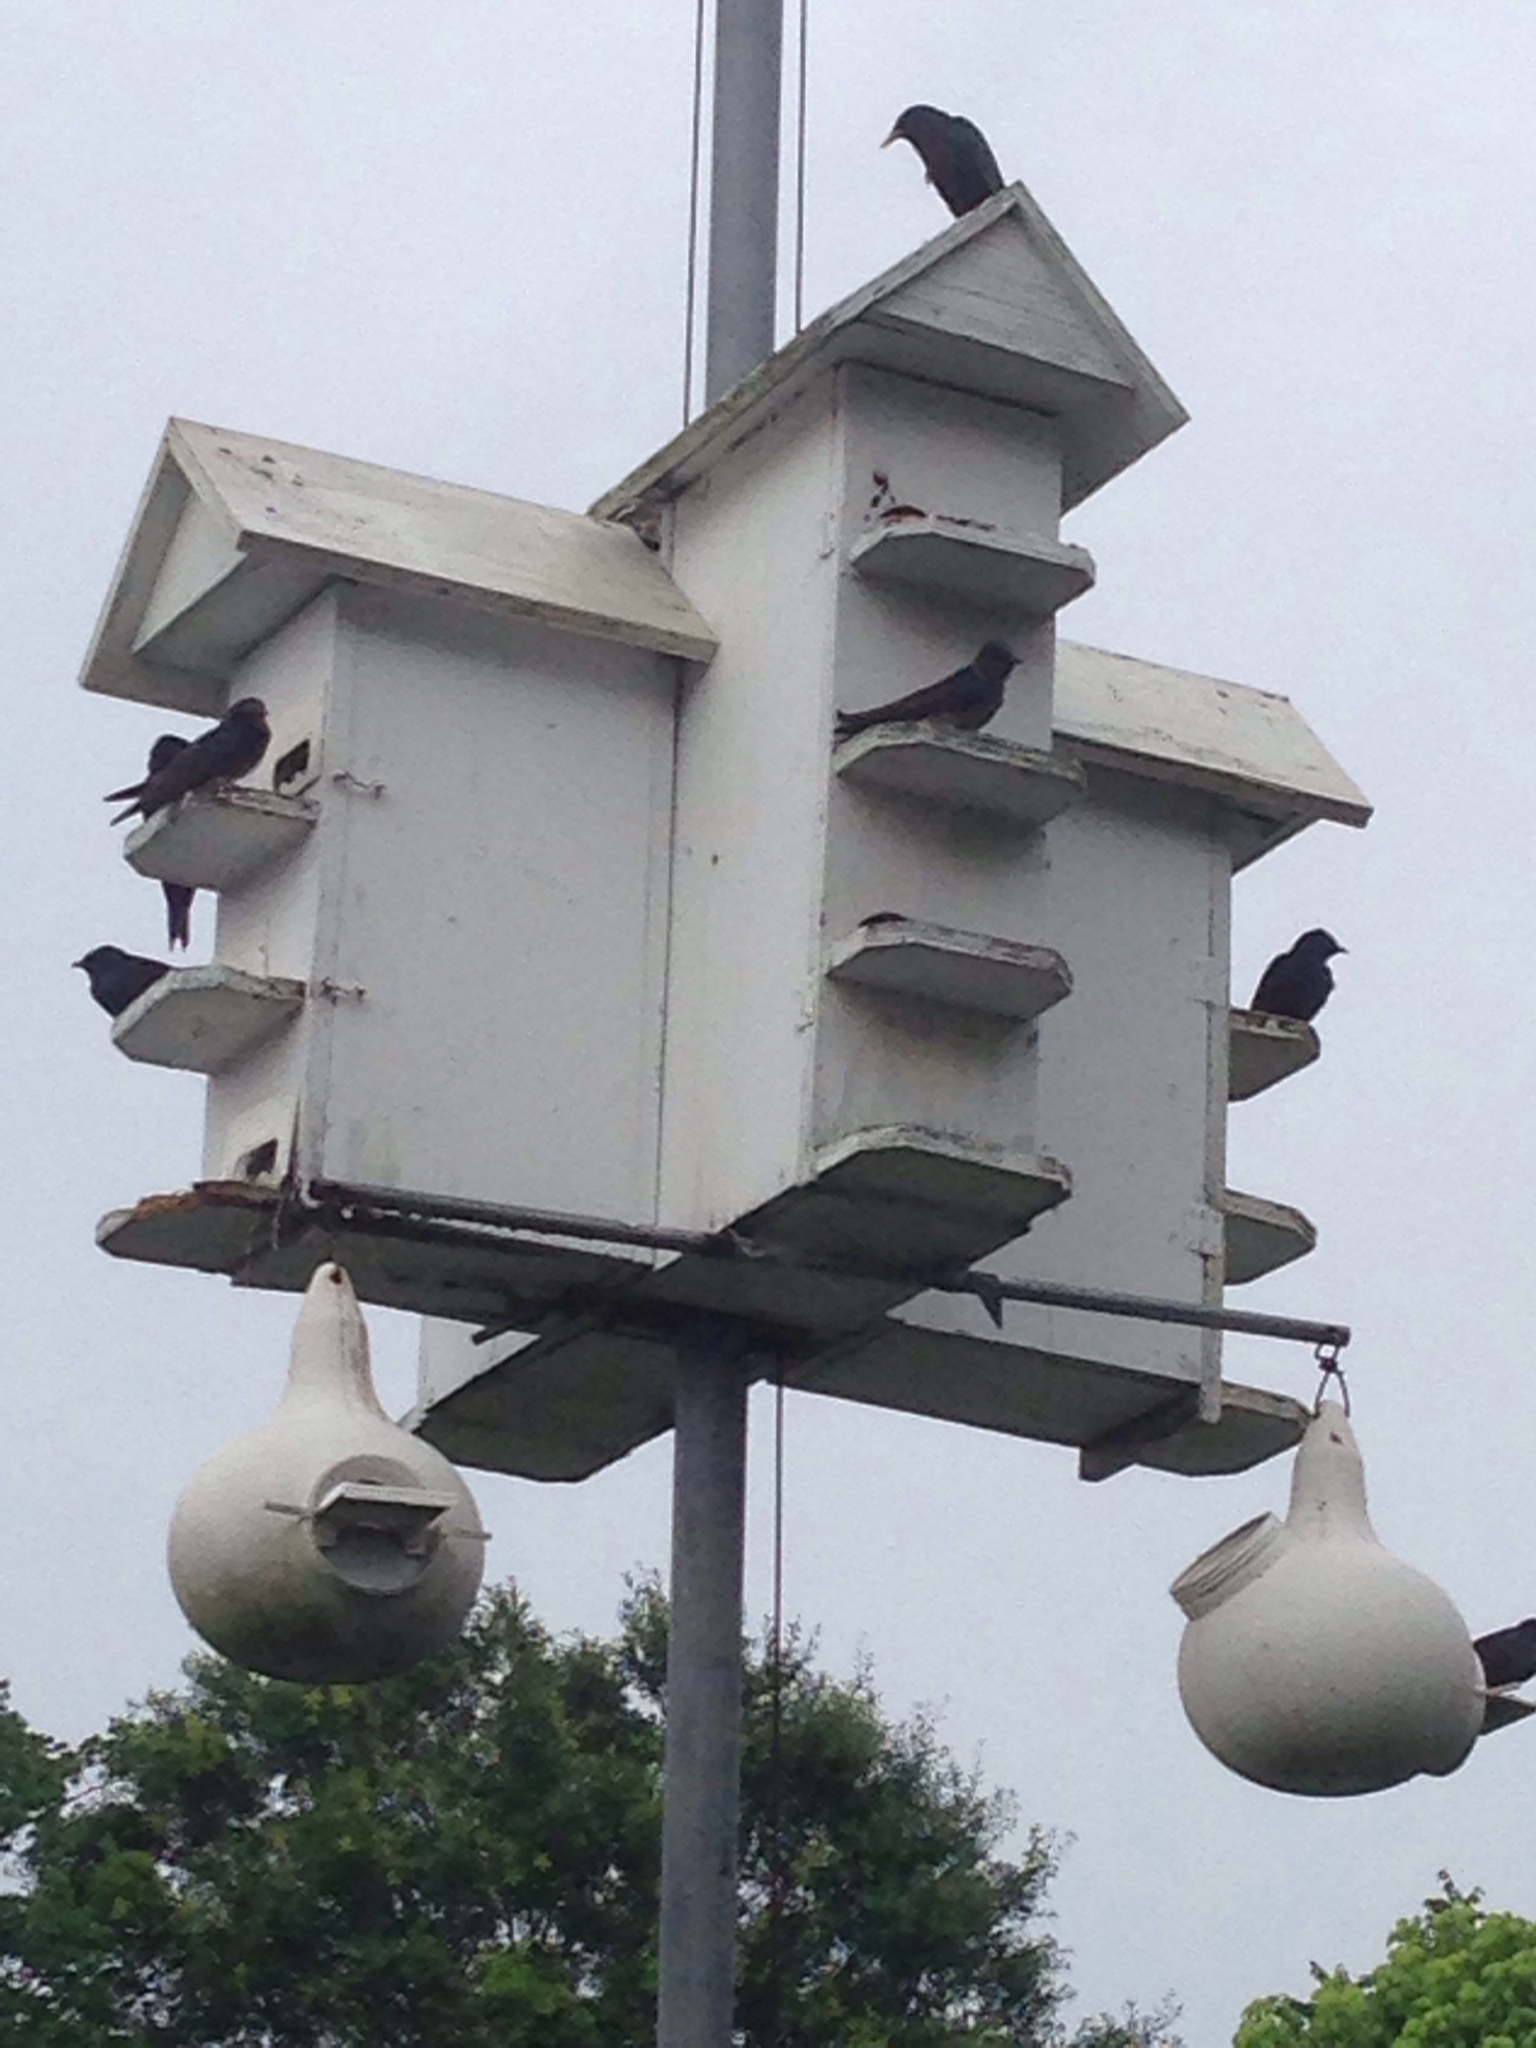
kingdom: Animalia
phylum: Chordata
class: Aves
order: Passeriformes
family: Hirundinidae
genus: Progne
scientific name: Progne subis
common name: Purple martin
